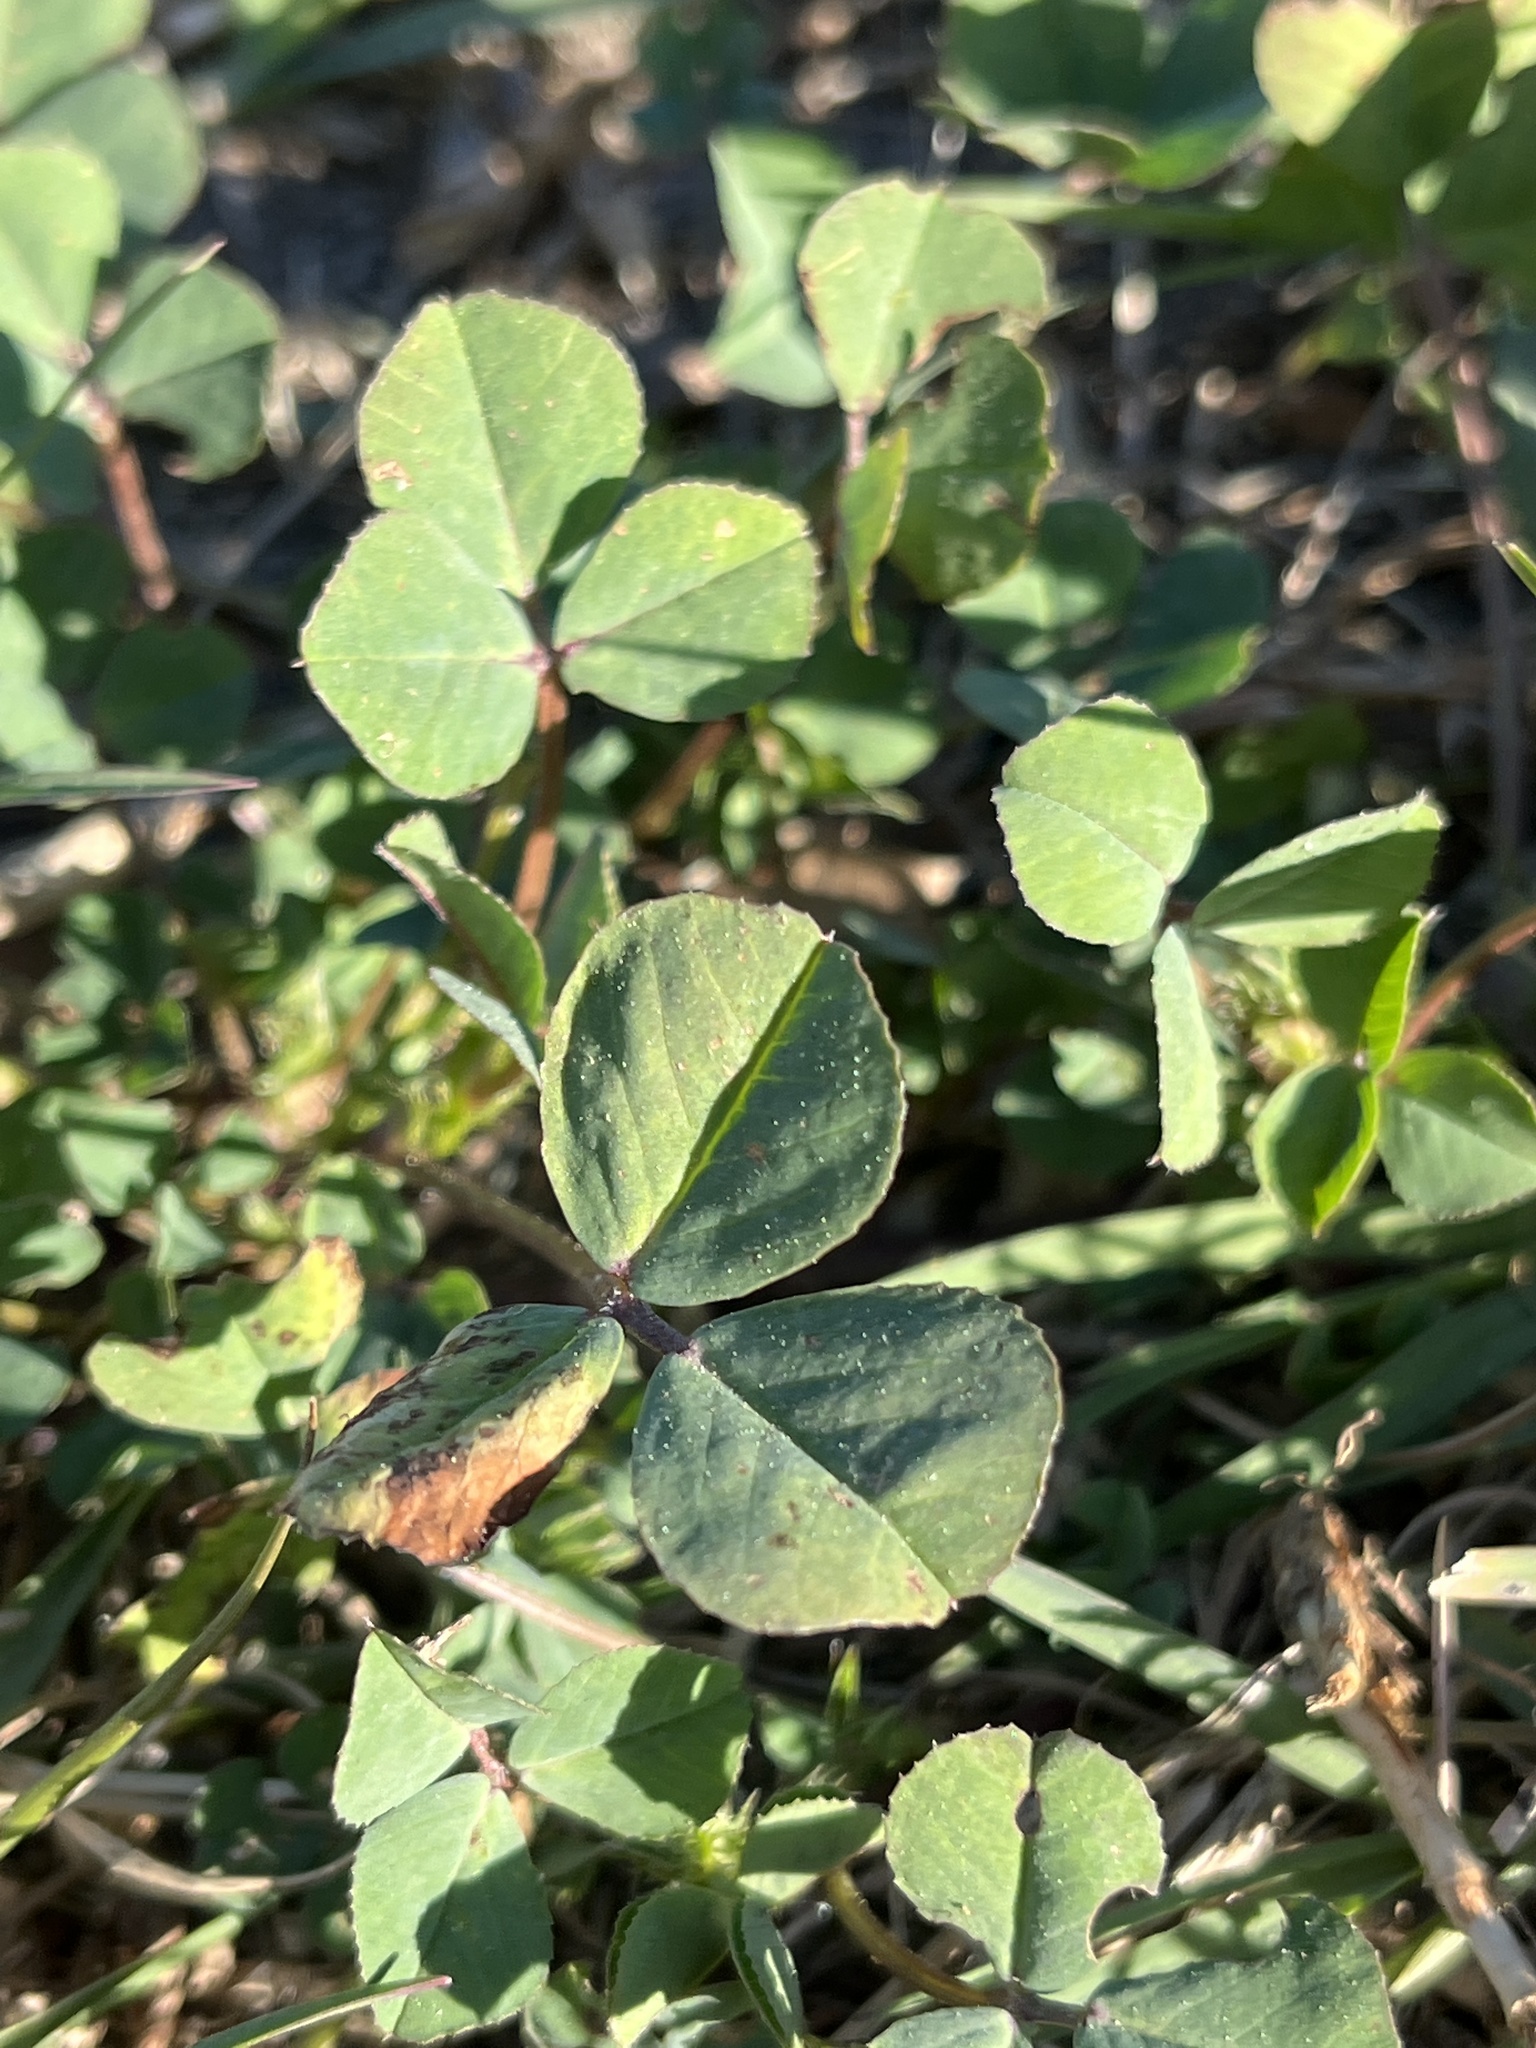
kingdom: Plantae
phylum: Tracheophyta
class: Magnoliopsida
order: Fabales
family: Fabaceae
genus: Trifolium
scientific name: Trifolium
